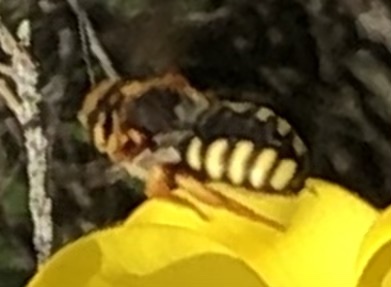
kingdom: Animalia
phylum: Arthropoda
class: Insecta
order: Hymenoptera
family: Megachilidae
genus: Rhodanthidium
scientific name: Rhodanthidium septemdentatum
